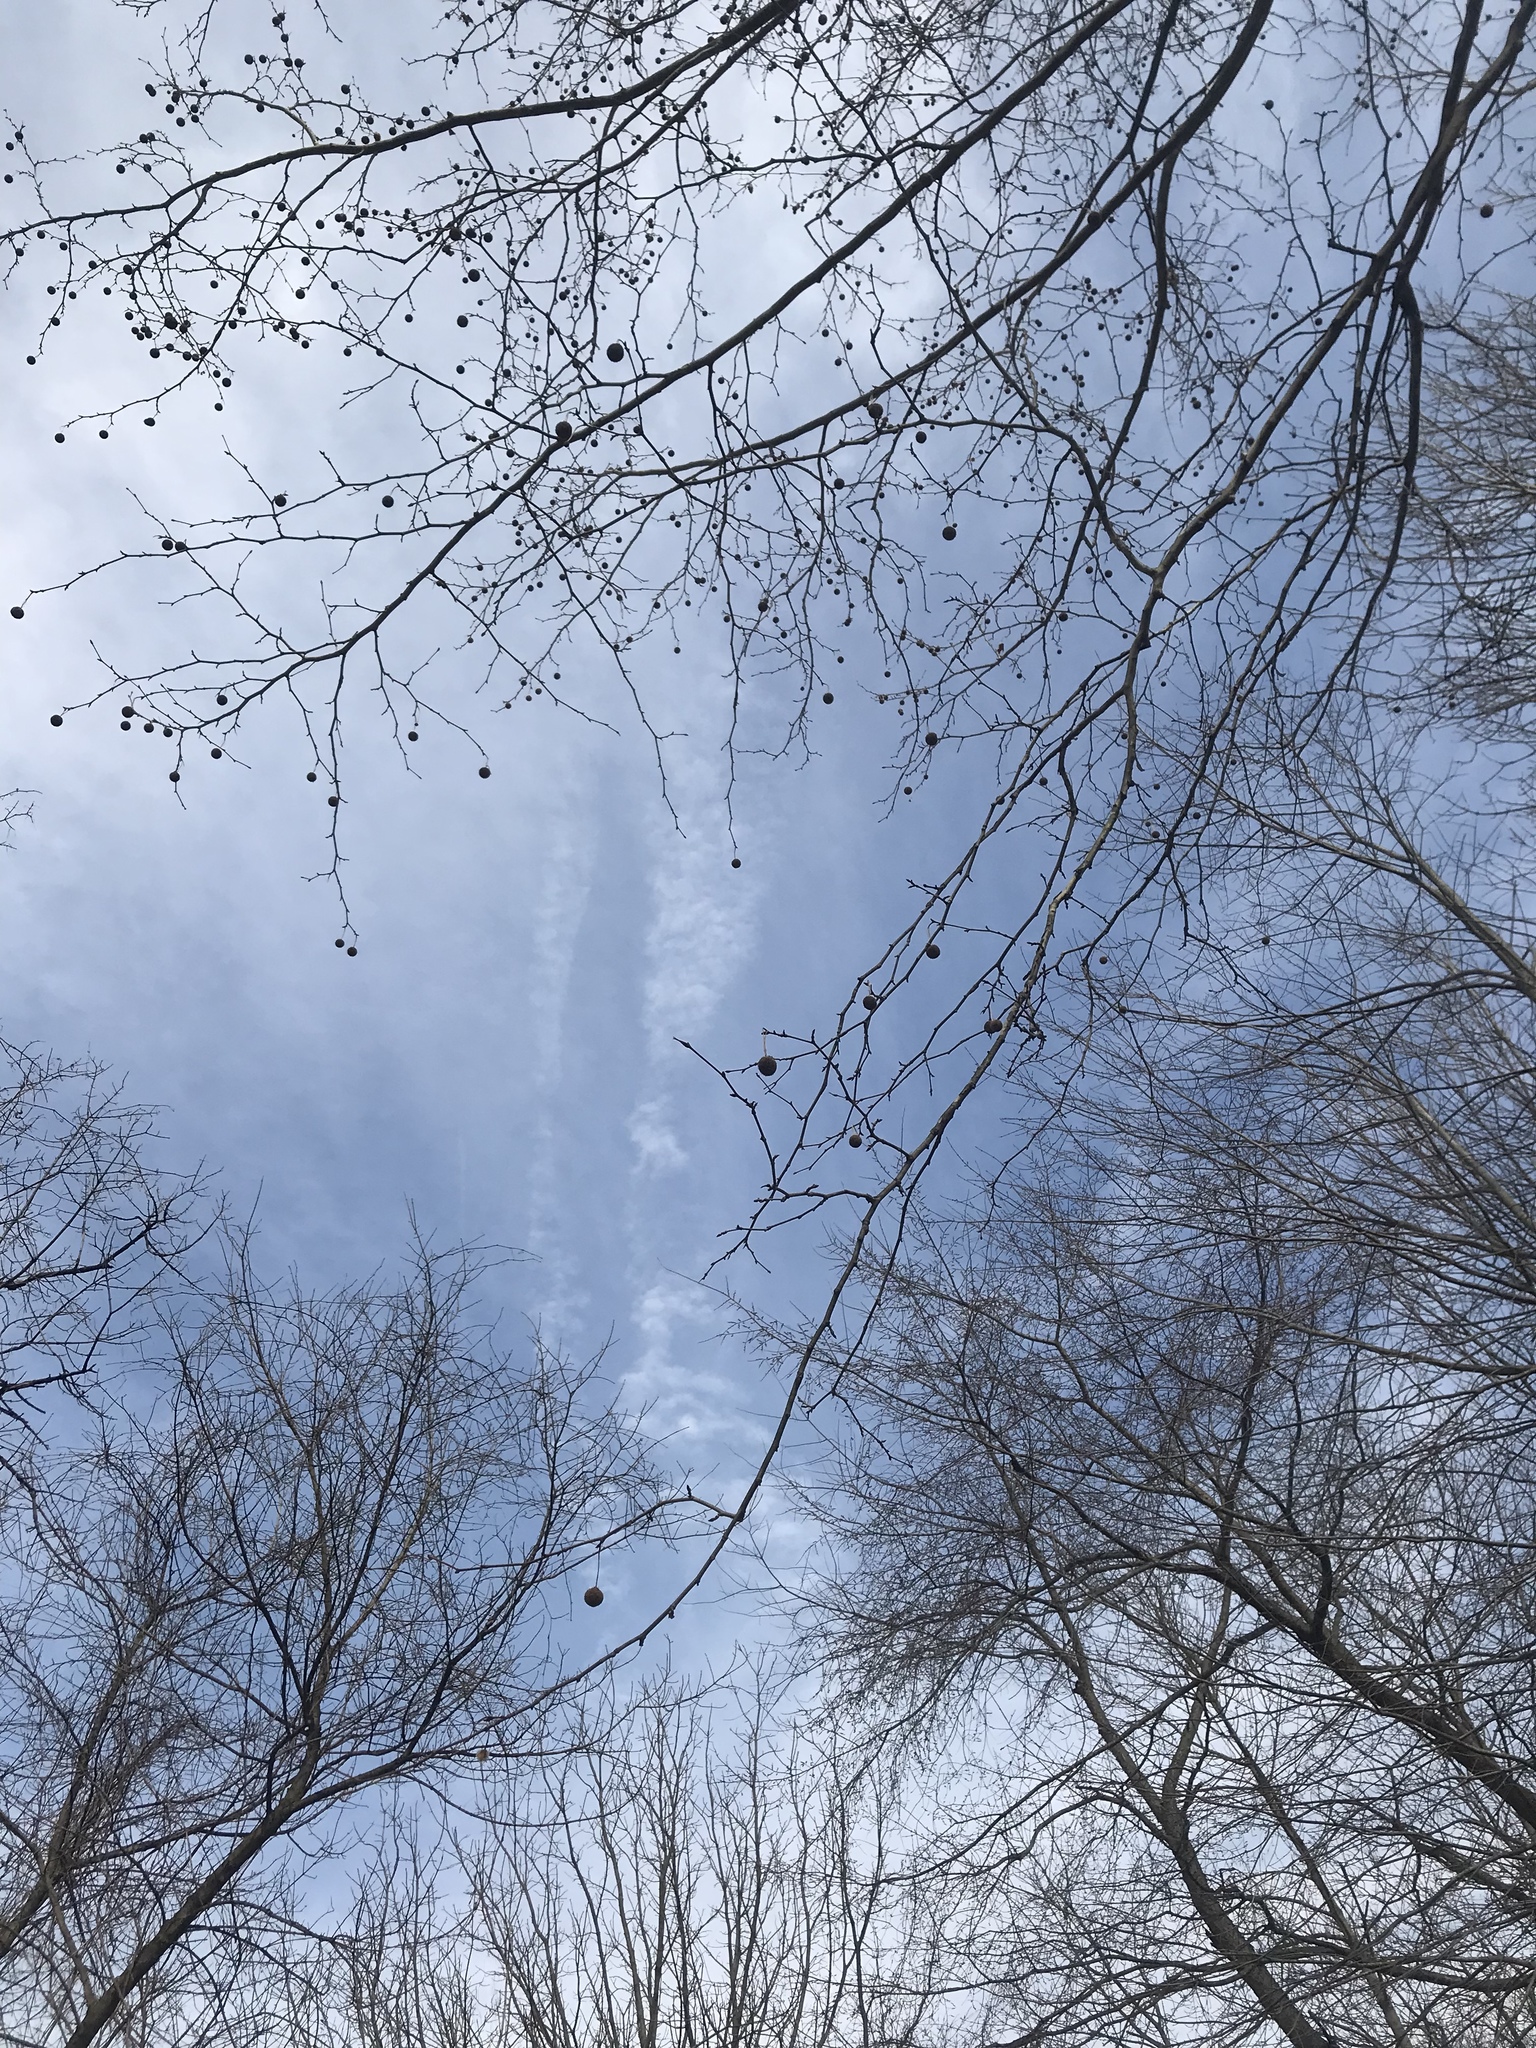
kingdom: Plantae
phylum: Tracheophyta
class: Magnoliopsida
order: Proteales
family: Platanaceae
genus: Platanus
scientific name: Platanus occidentalis
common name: American sycamore
